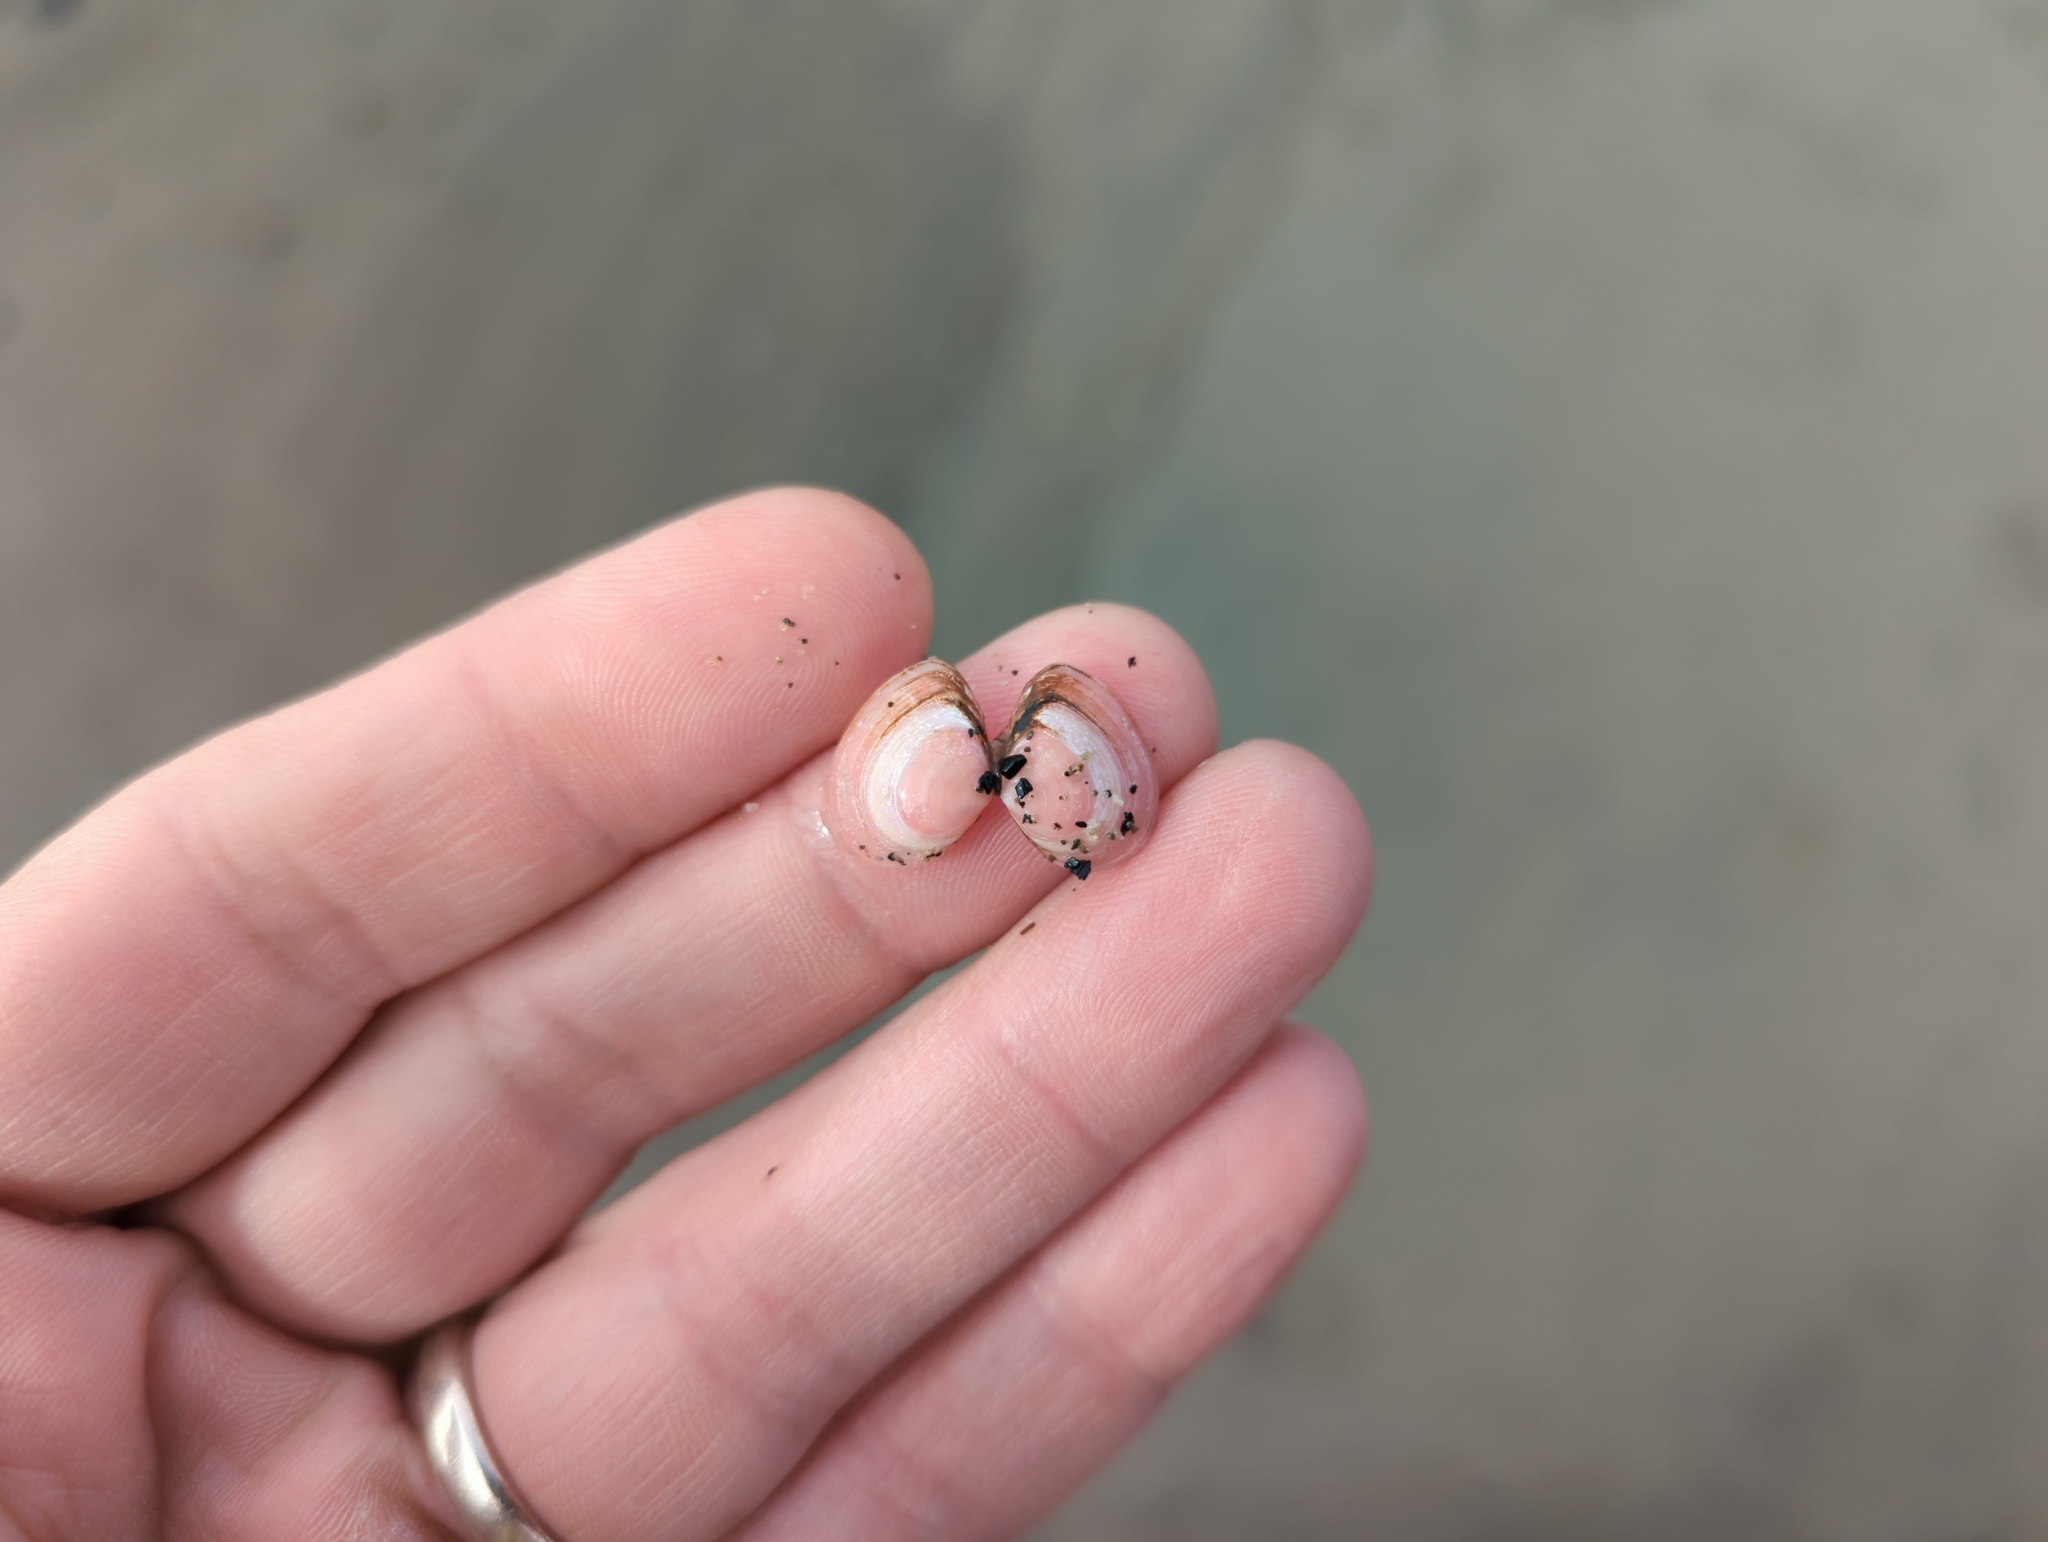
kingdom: Animalia
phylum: Mollusca
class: Bivalvia
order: Cardiida
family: Tellinidae
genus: Macoma
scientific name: Macoma balthica
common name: Baltic tellin
